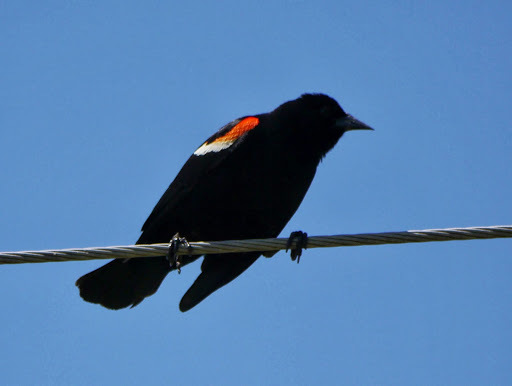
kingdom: Animalia
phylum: Chordata
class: Aves
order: Passeriformes
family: Icteridae
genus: Agelaius
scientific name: Agelaius phoeniceus
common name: Red-winged blackbird
